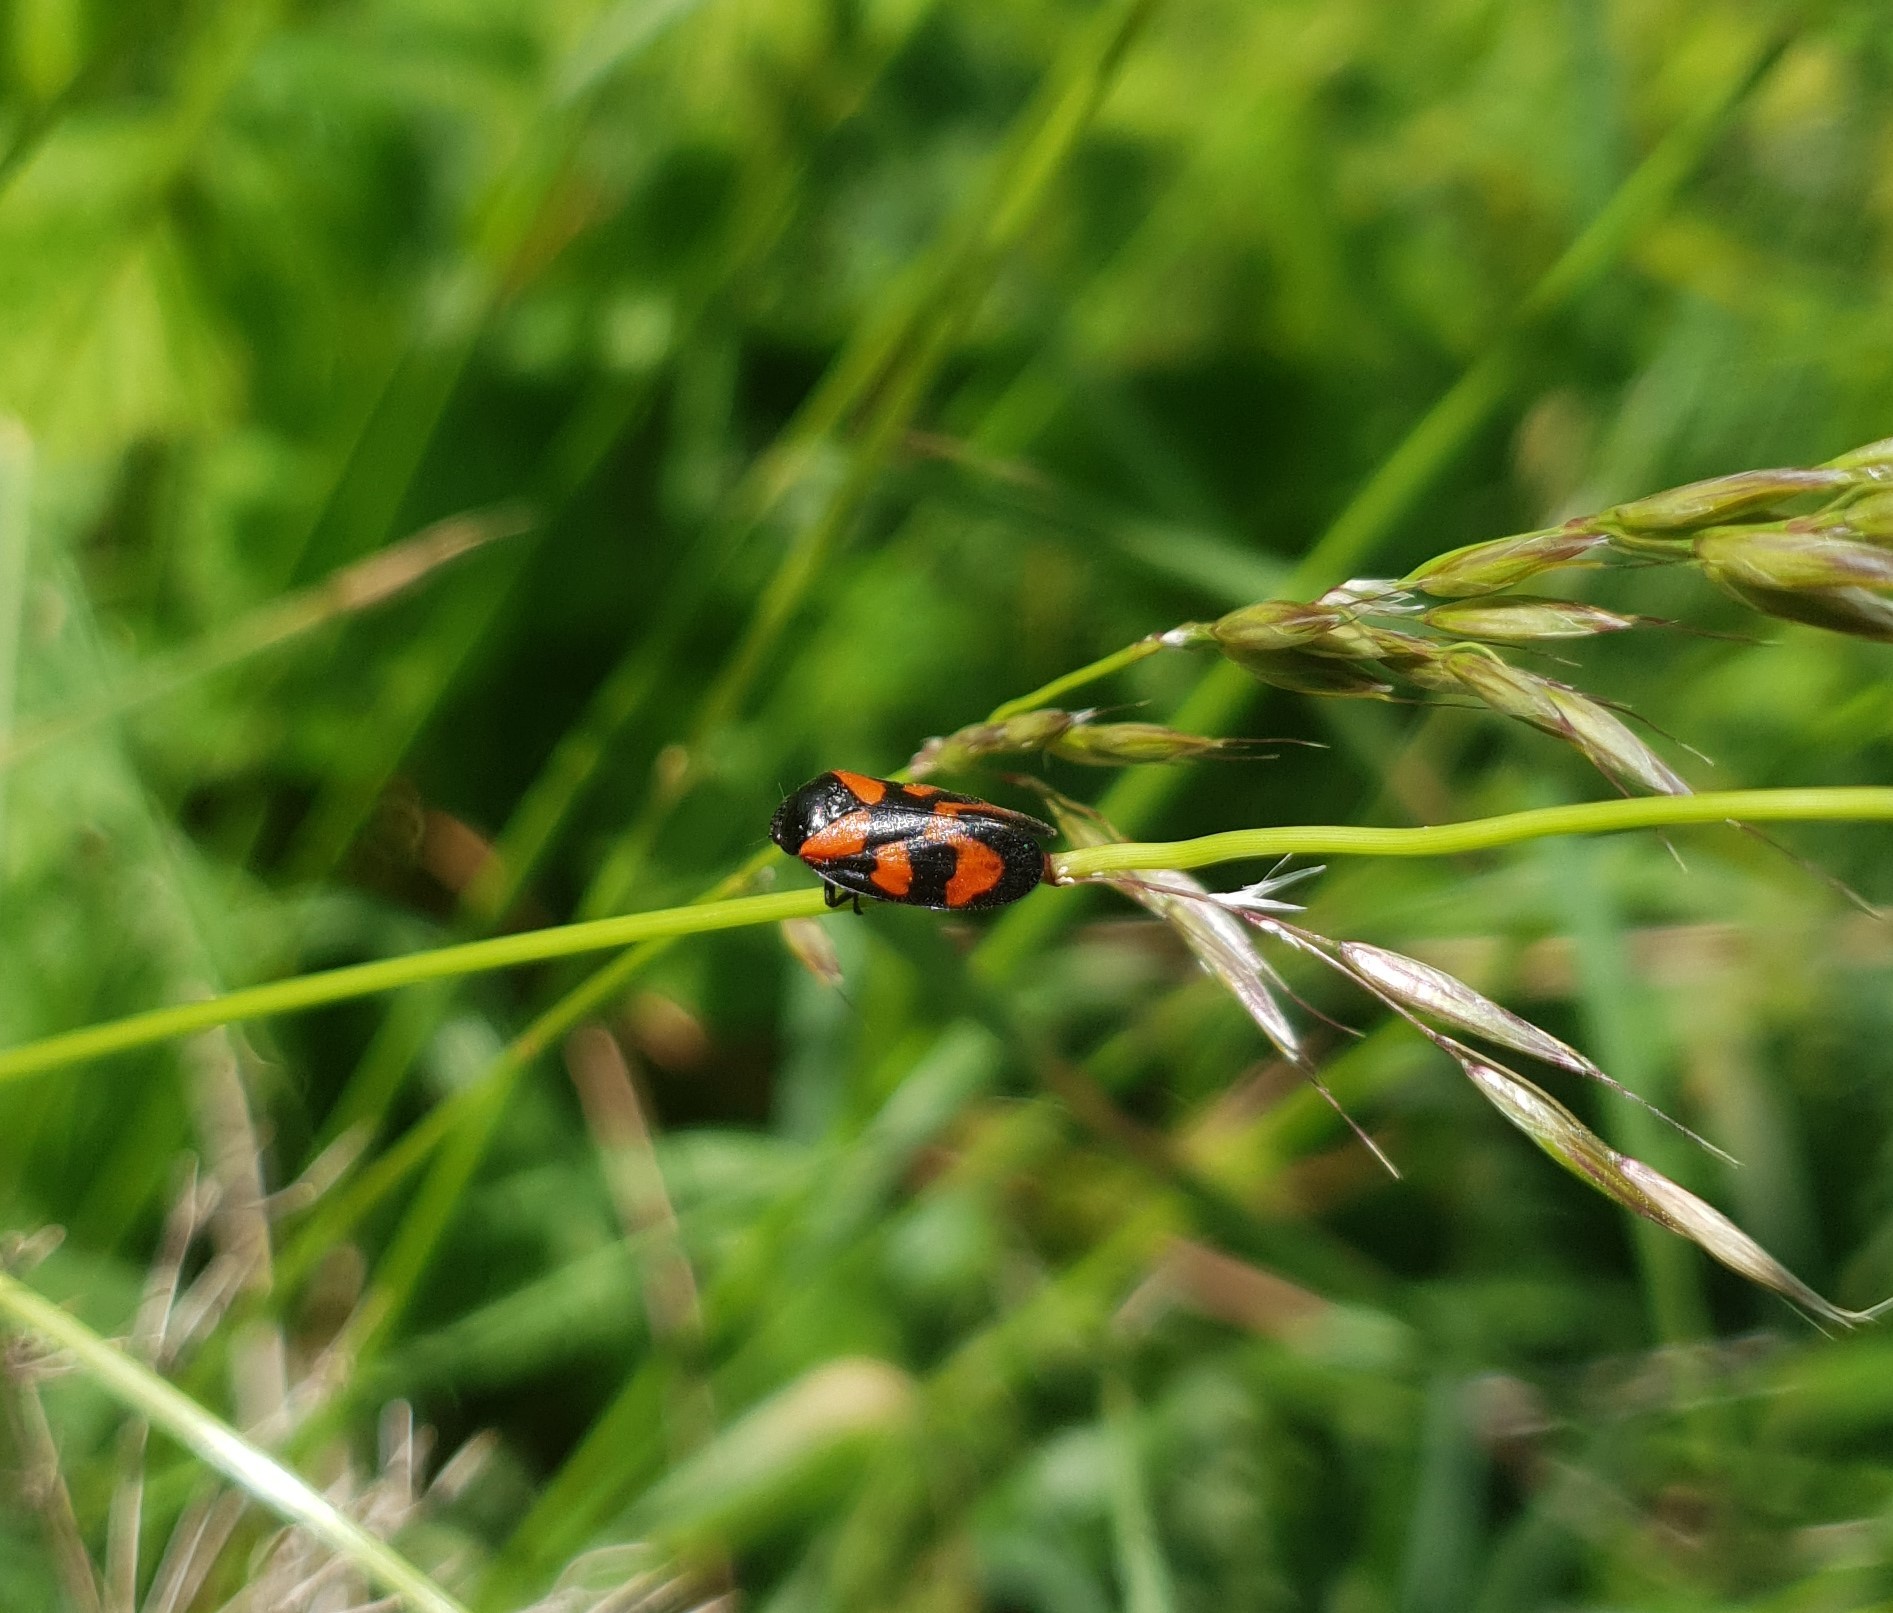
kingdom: Animalia
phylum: Arthropoda
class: Insecta
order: Hemiptera
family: Cercopidae
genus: Cercopis
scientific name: Cercopis vulnerata
